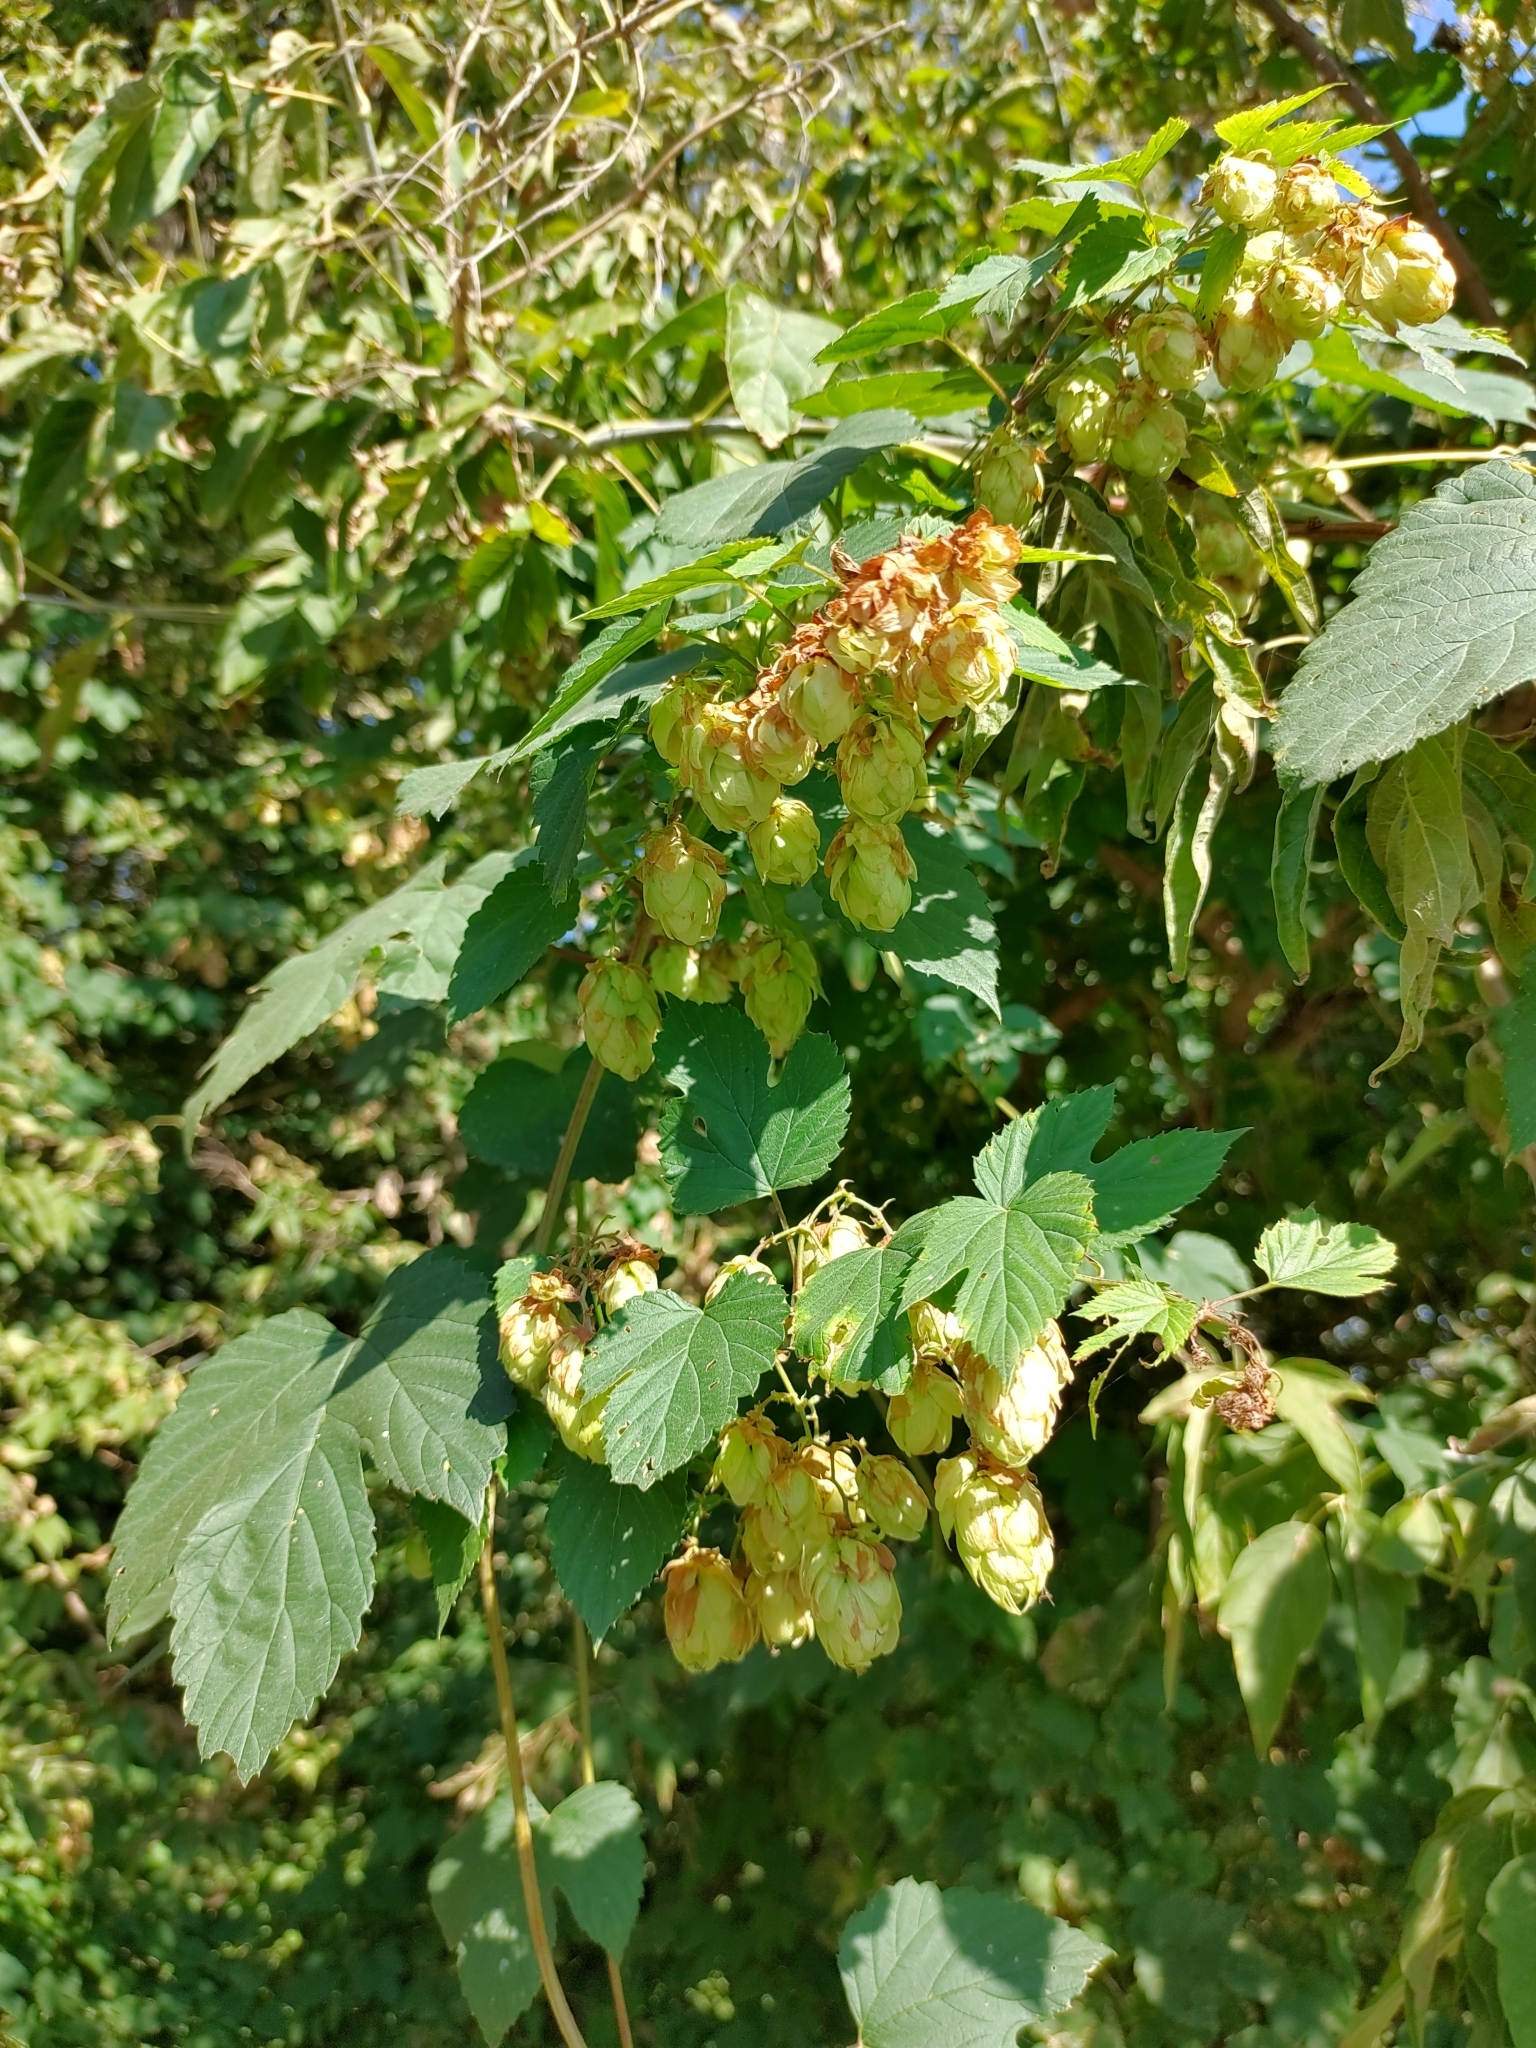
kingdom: Plantae
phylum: Tracheophyta
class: Magnoliopsida
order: Rosales
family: Cannabaceae
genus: Humulus
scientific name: Humulus lupulus
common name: Hop
